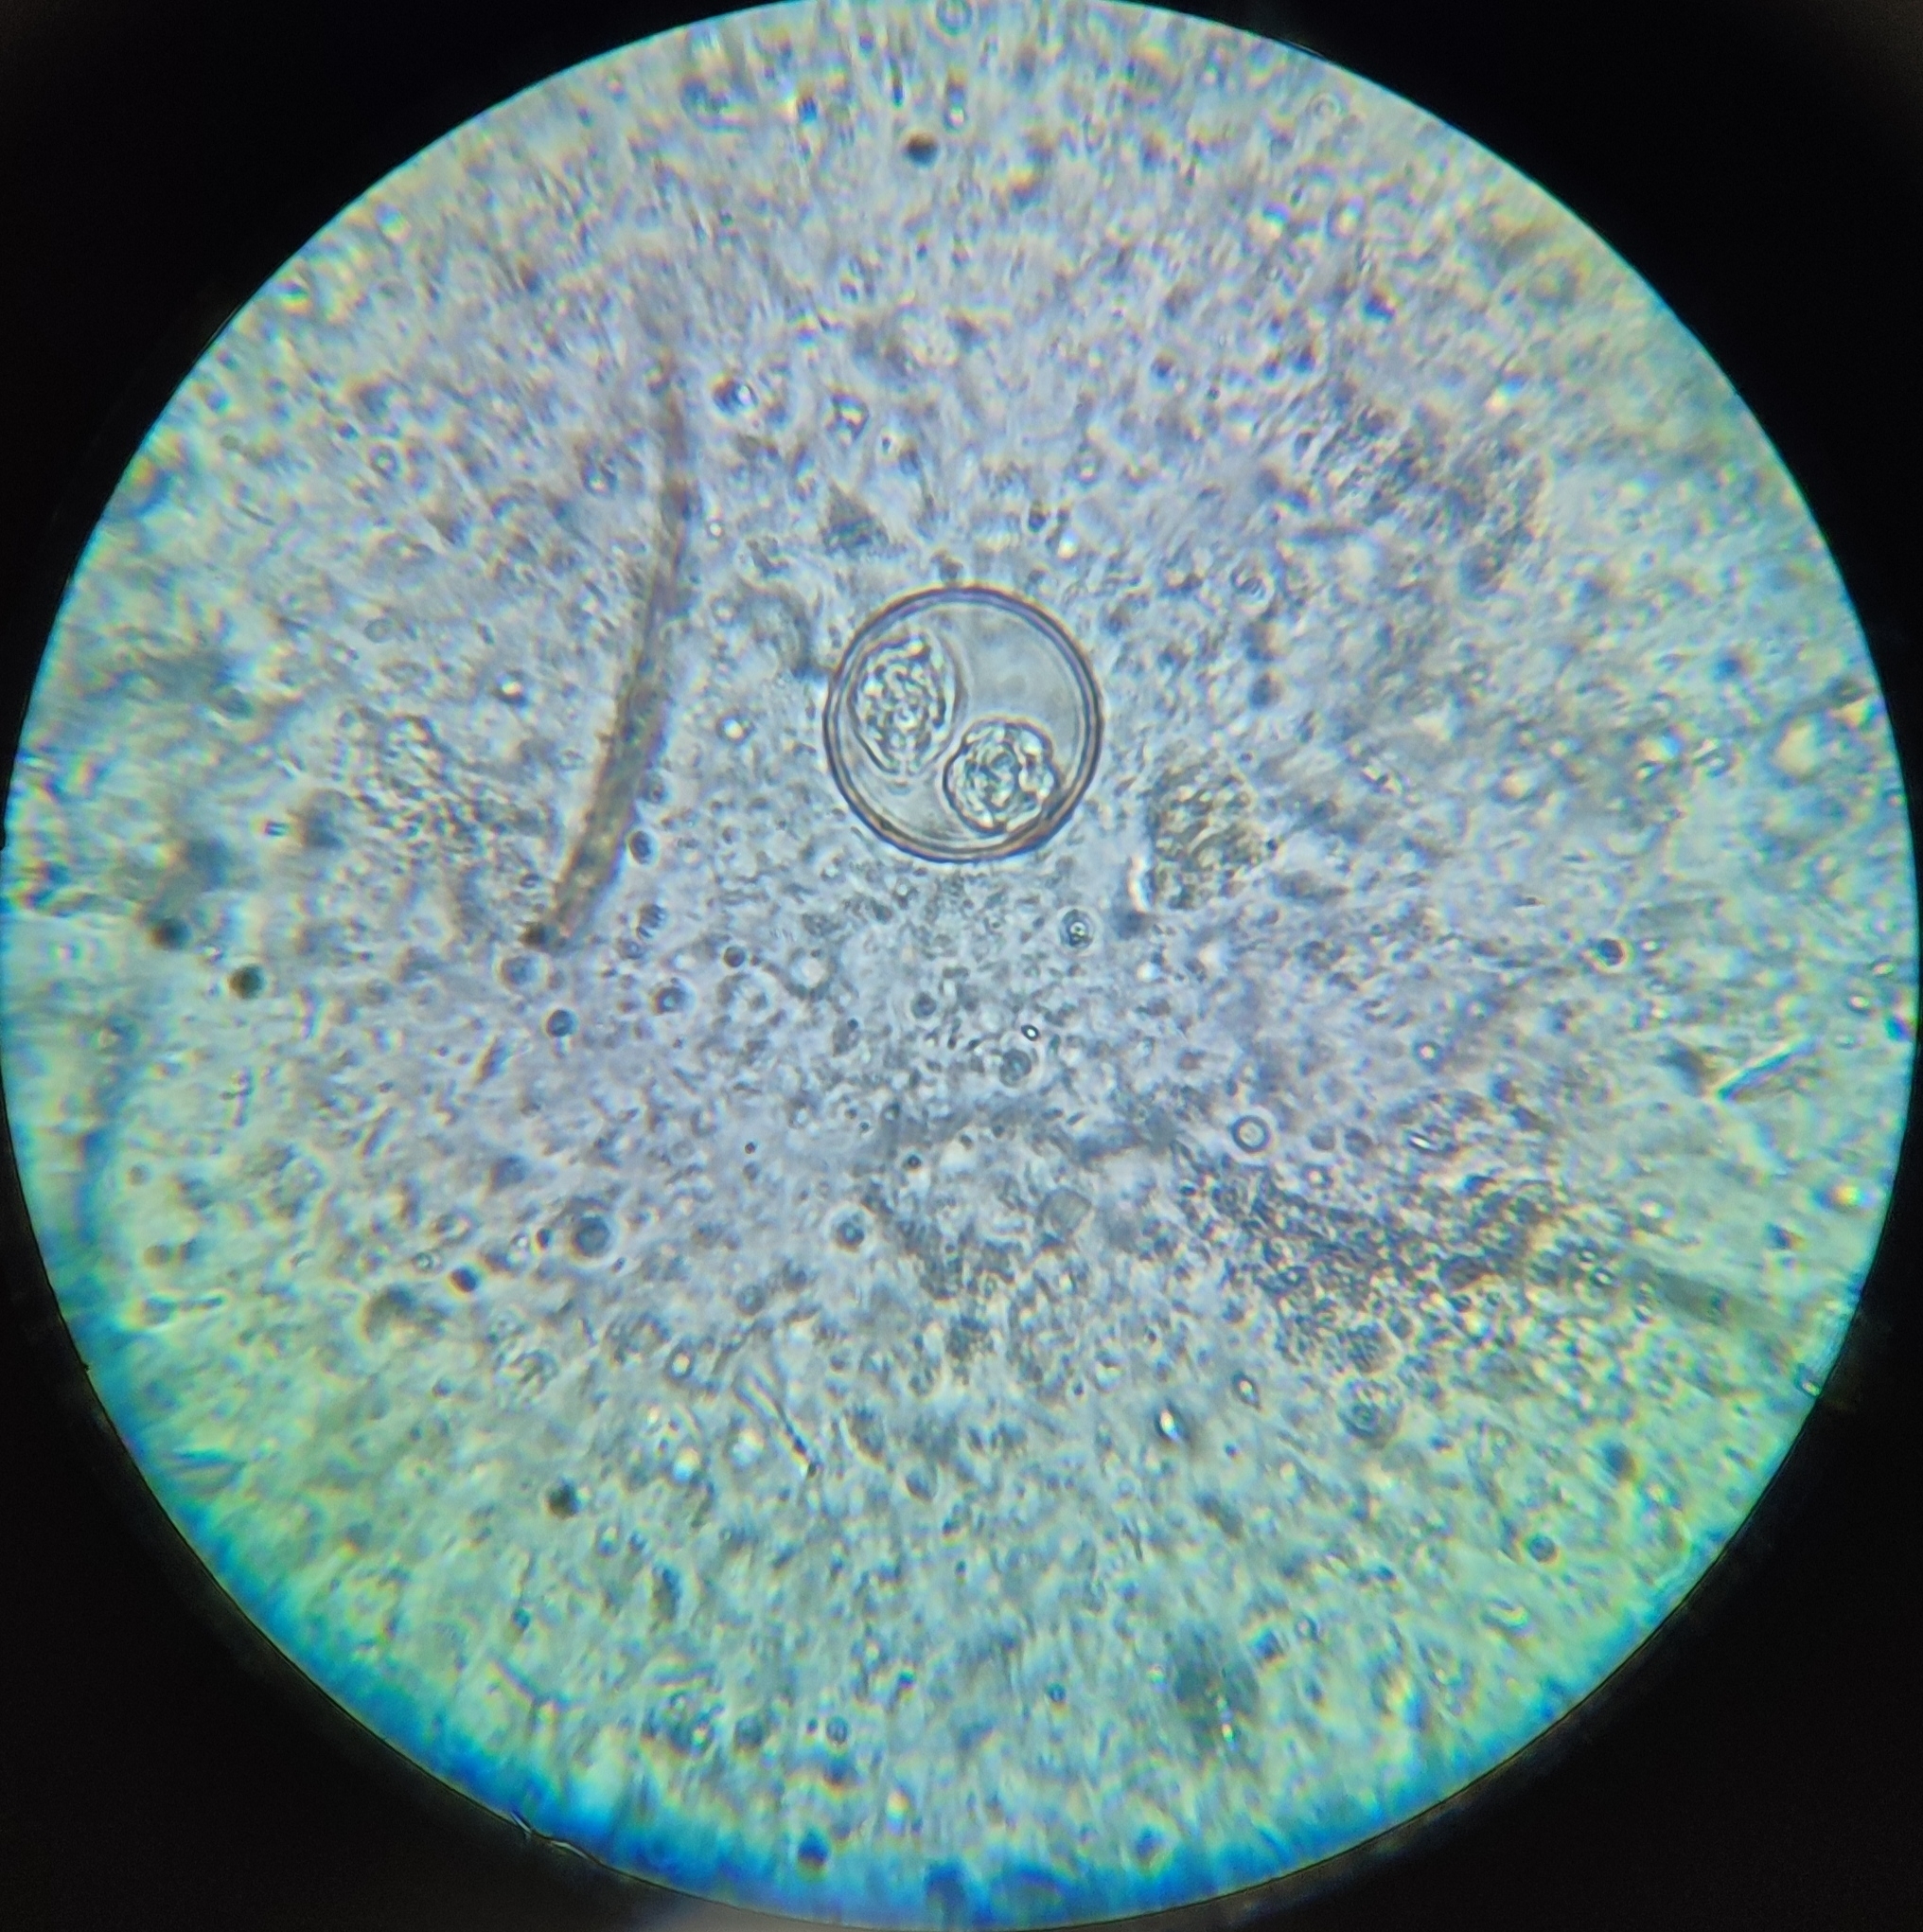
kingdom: Chromista
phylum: Myzozoa
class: Conoidasida
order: Eucoccidiorida
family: Eimeriidae
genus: Isospora
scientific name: Isospora
